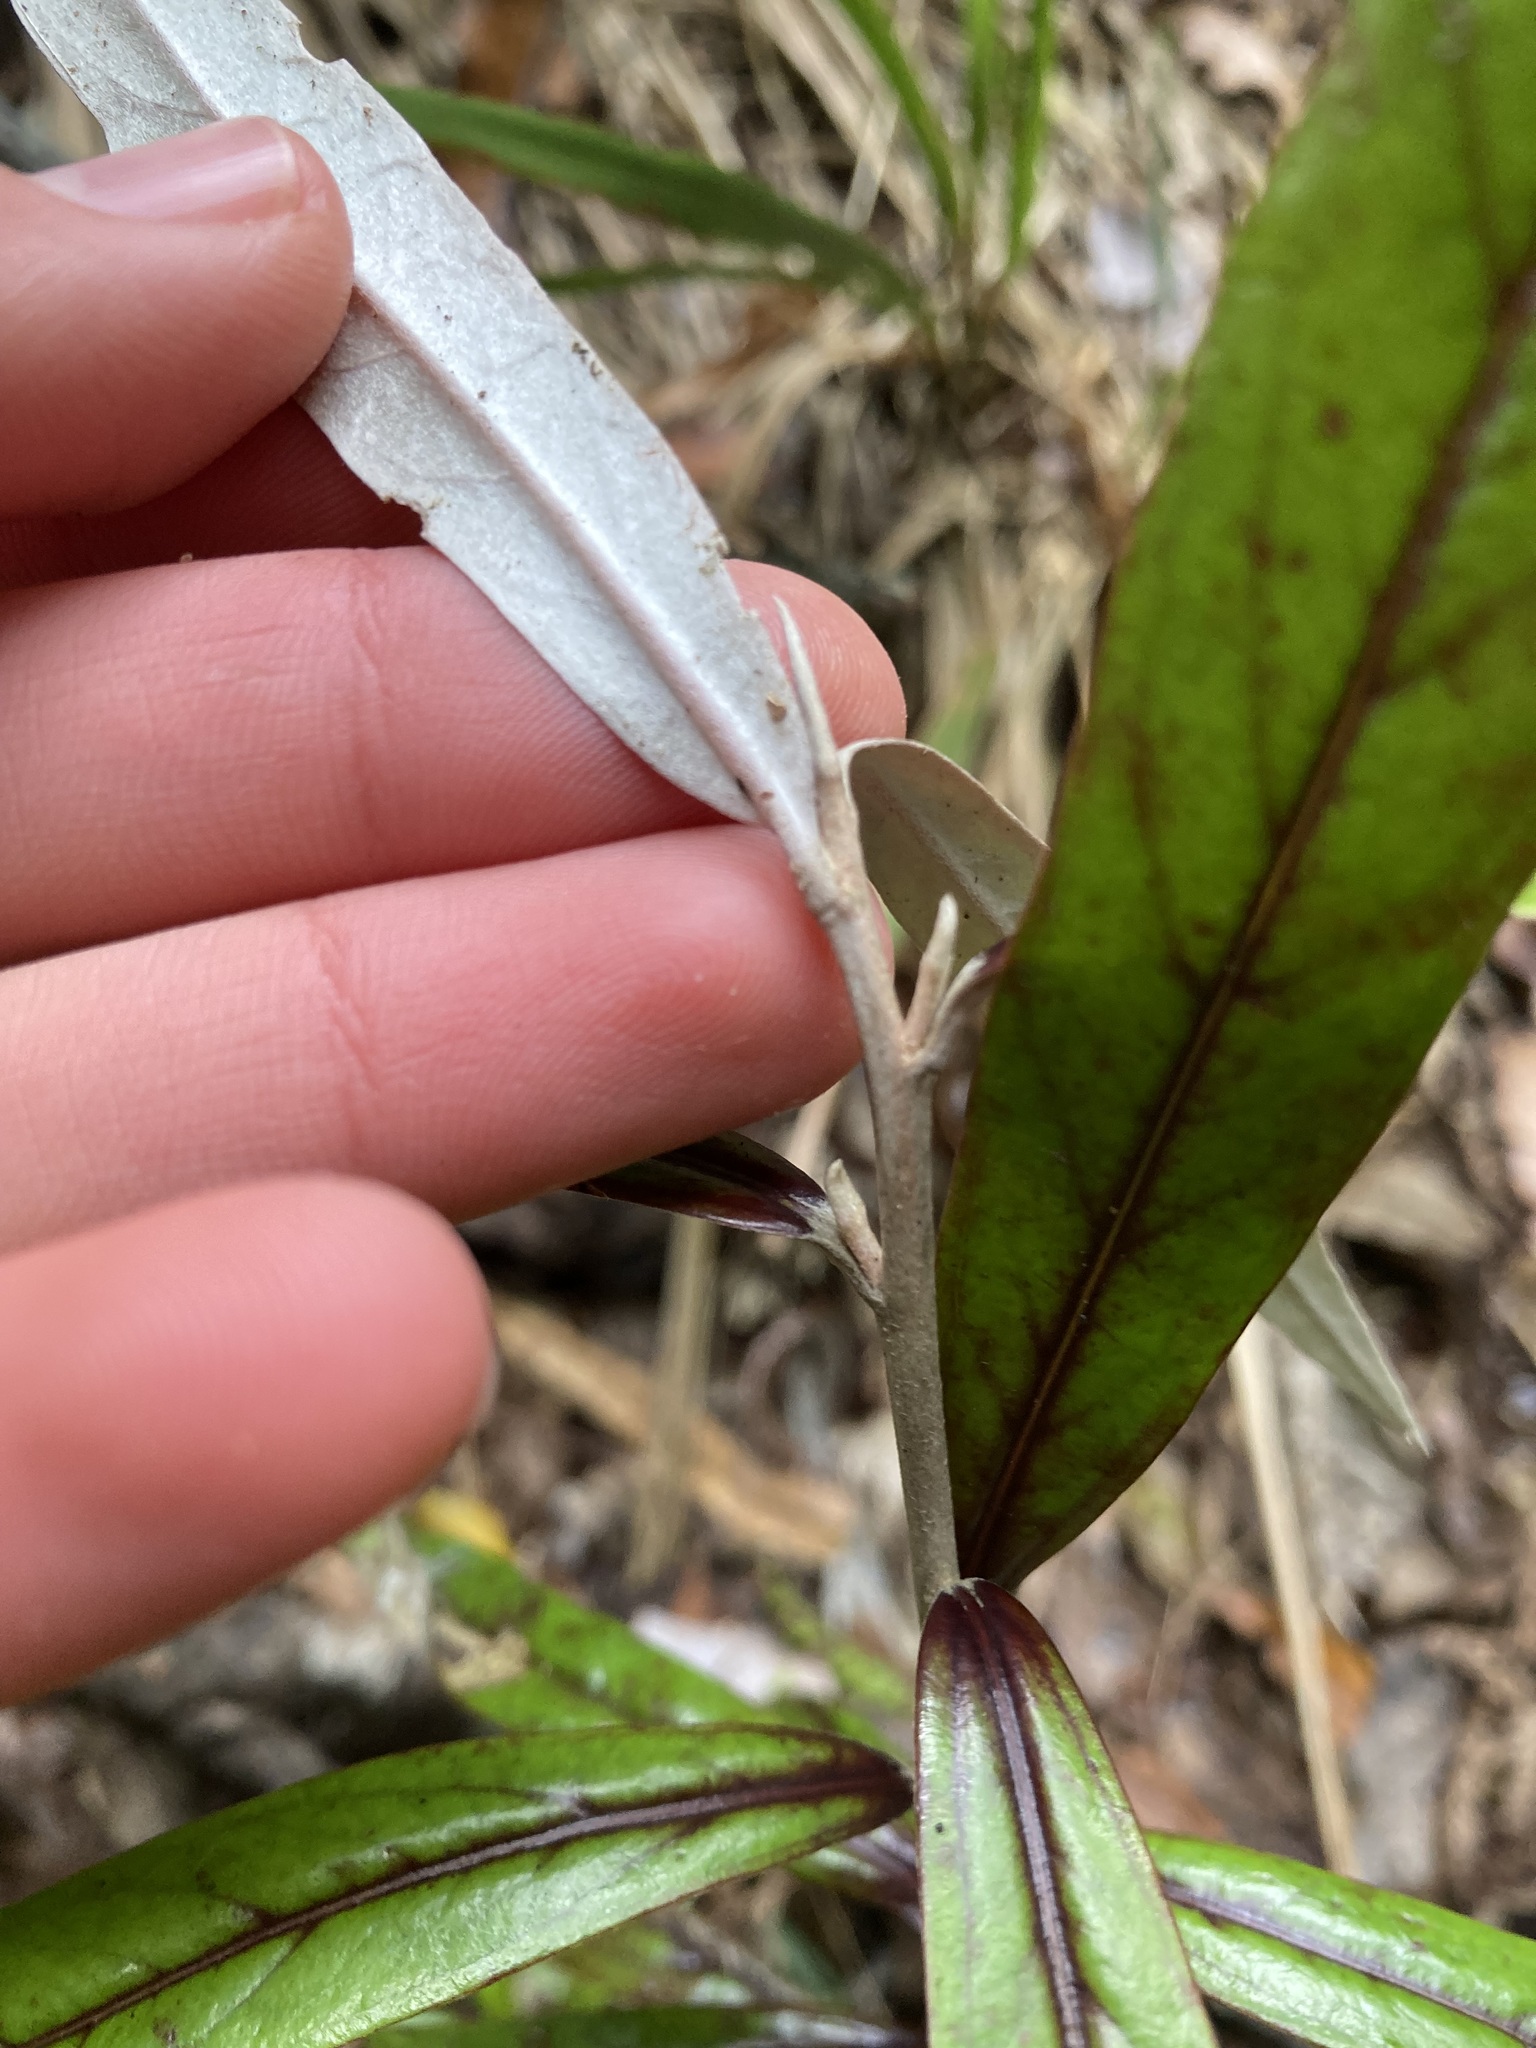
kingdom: Plantae
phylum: Tracheophyta
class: Magnoliopsida
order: Asterales
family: Argophyllaceae
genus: Corokia
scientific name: Corokia buddleioides
